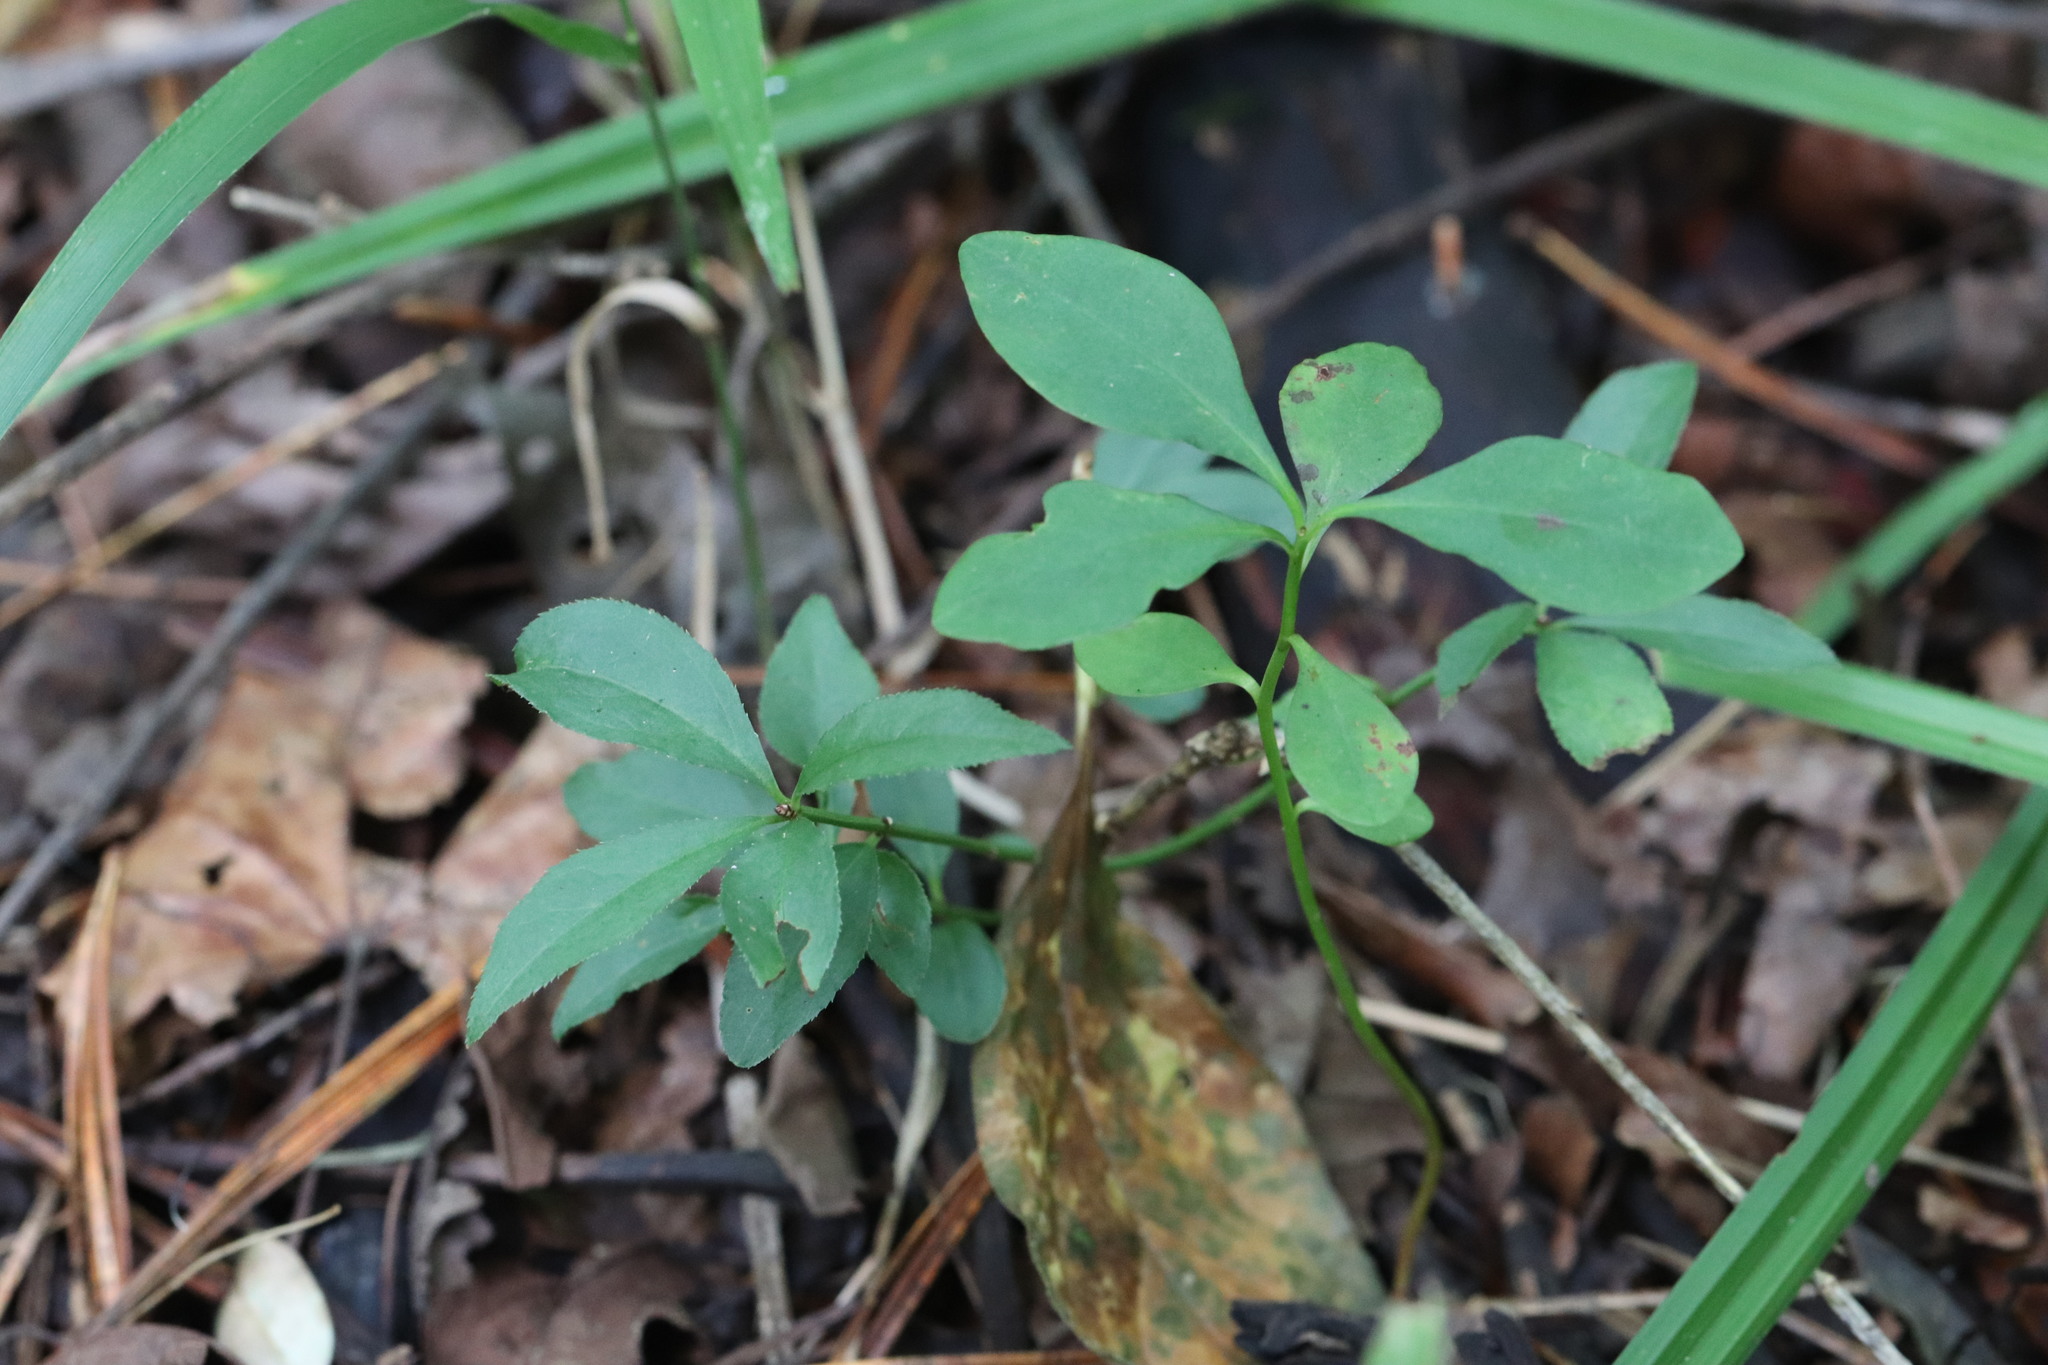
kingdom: Plantae
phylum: Tracheophyta
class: Magnoliopsida
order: Celastrales
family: Celastraceae
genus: Euonymus
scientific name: Euonymus alatus
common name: Winged euonymus
